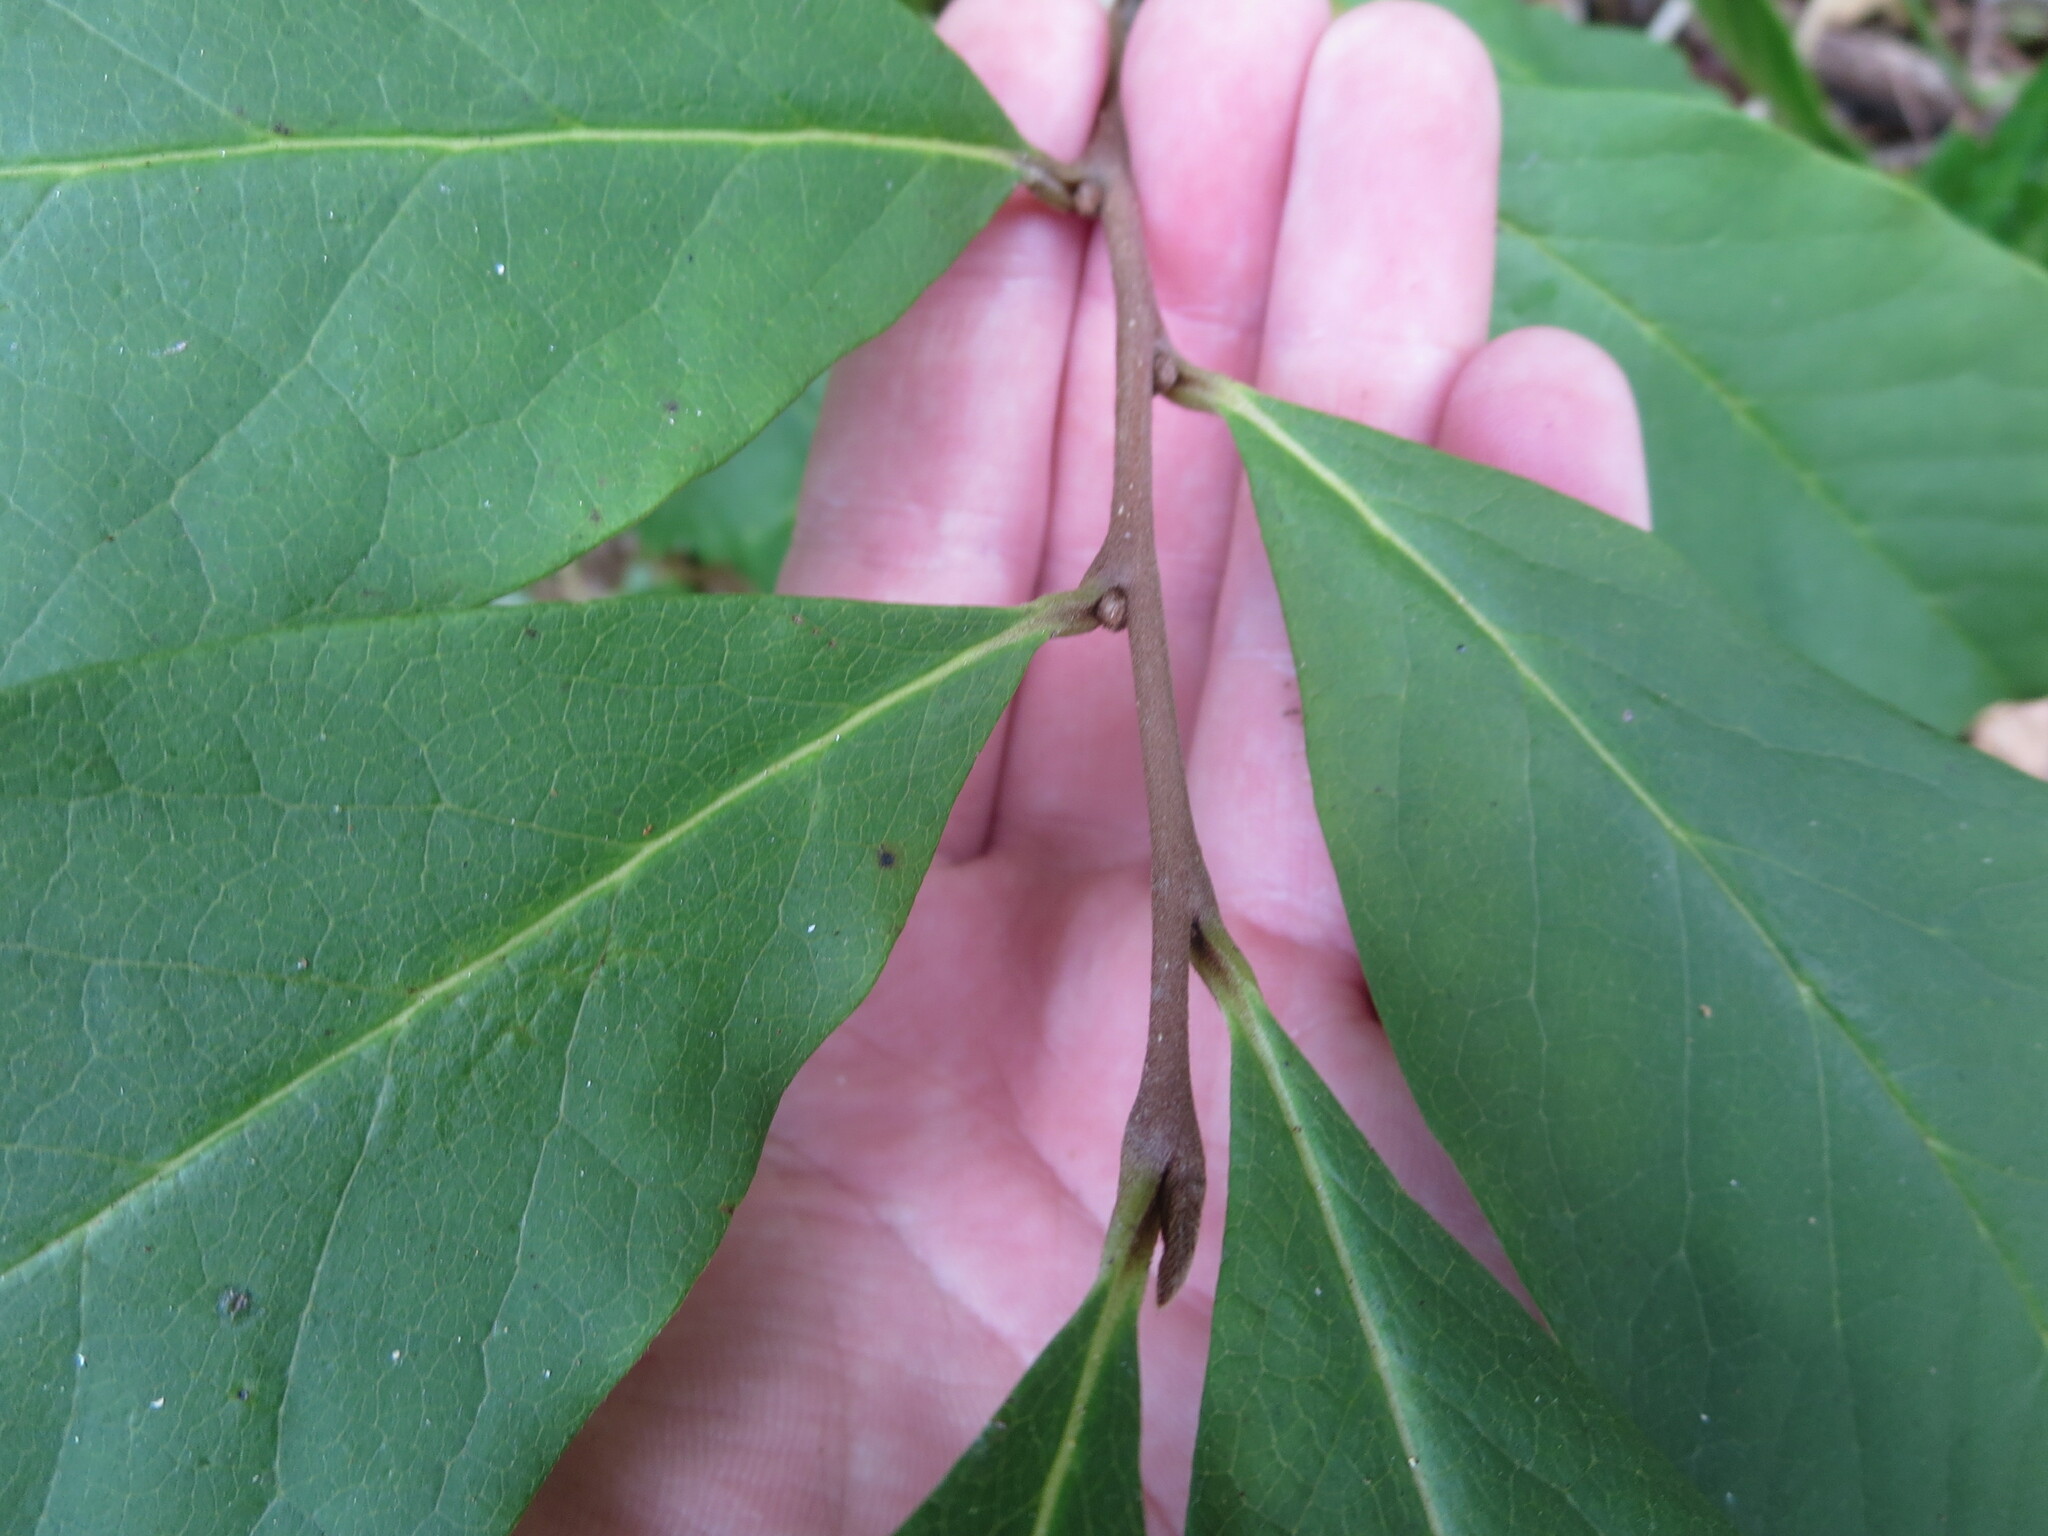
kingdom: Plantae
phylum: Tracheophyta
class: Magnoliopsida
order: Magnoliales
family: Annonaceae
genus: Asimina
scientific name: Asimina parviflora
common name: Dwarf pawpaw
